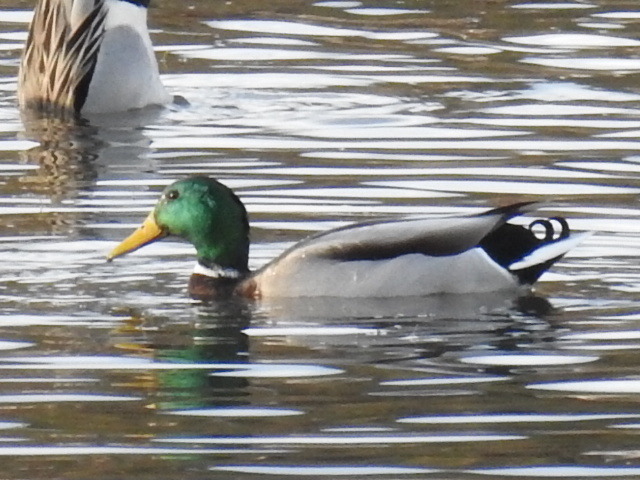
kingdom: Animalia
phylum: Chordata
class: Aves
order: Anseriformes
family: Anatidae
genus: Anas
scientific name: Anas platyrhynchos
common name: Mallard
